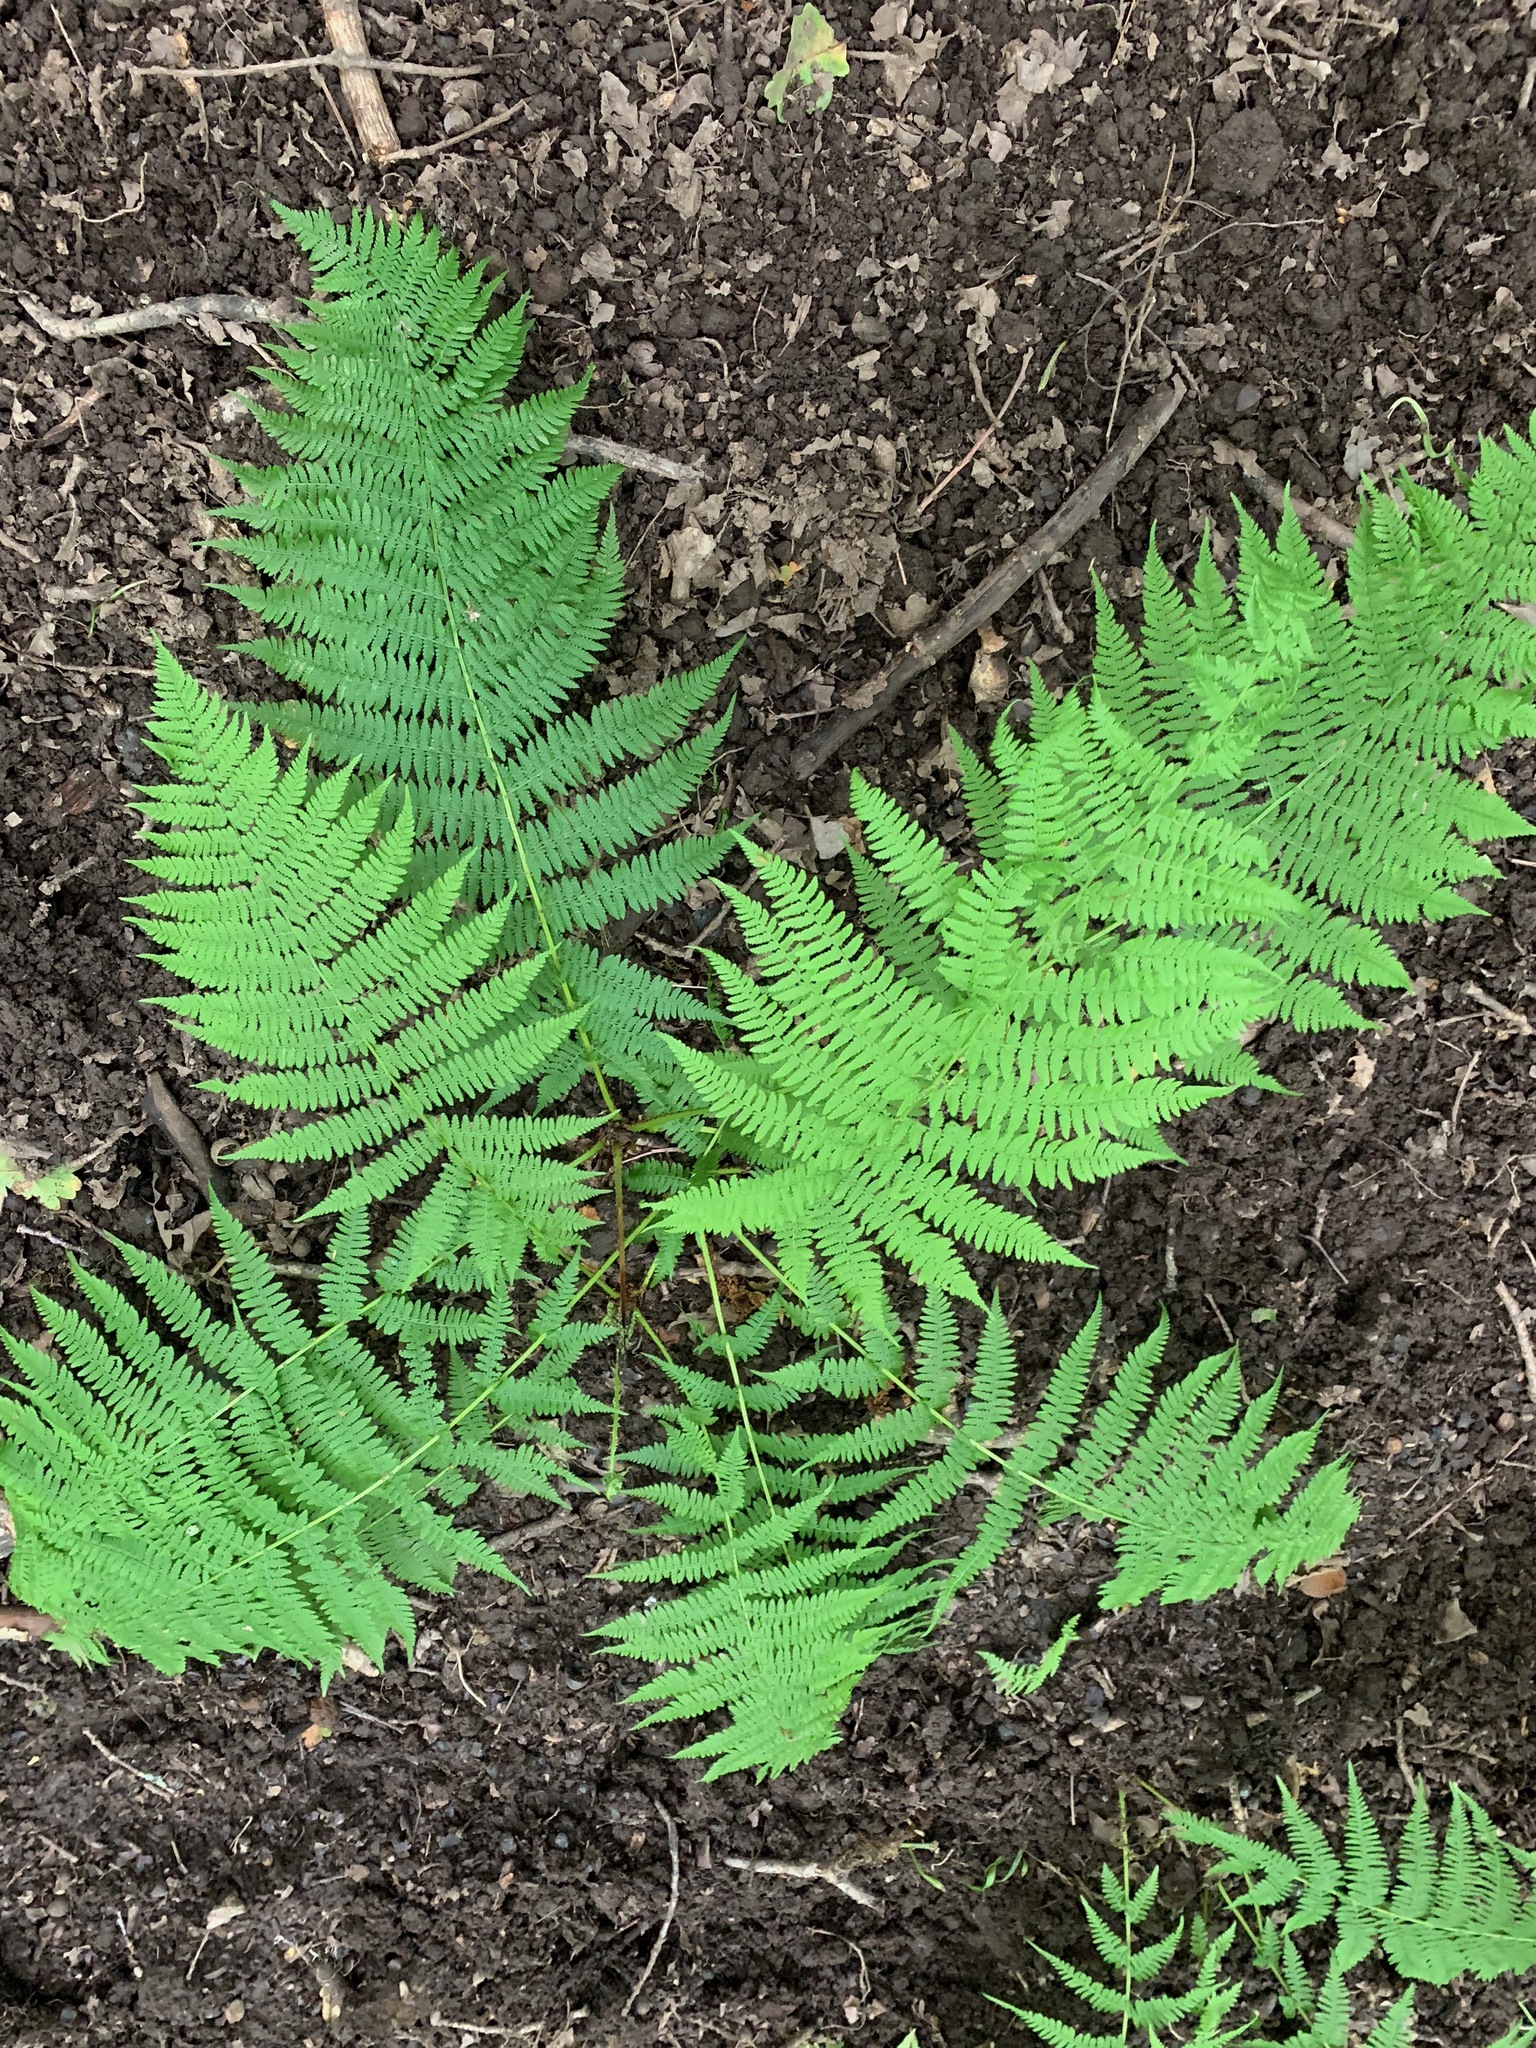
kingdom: Plantae
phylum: Tracheophyta
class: Polypodiopsida
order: Polypodiales
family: Athyriaceae
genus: Athyrium
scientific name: Athyrium filix-femina
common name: Lady fern
